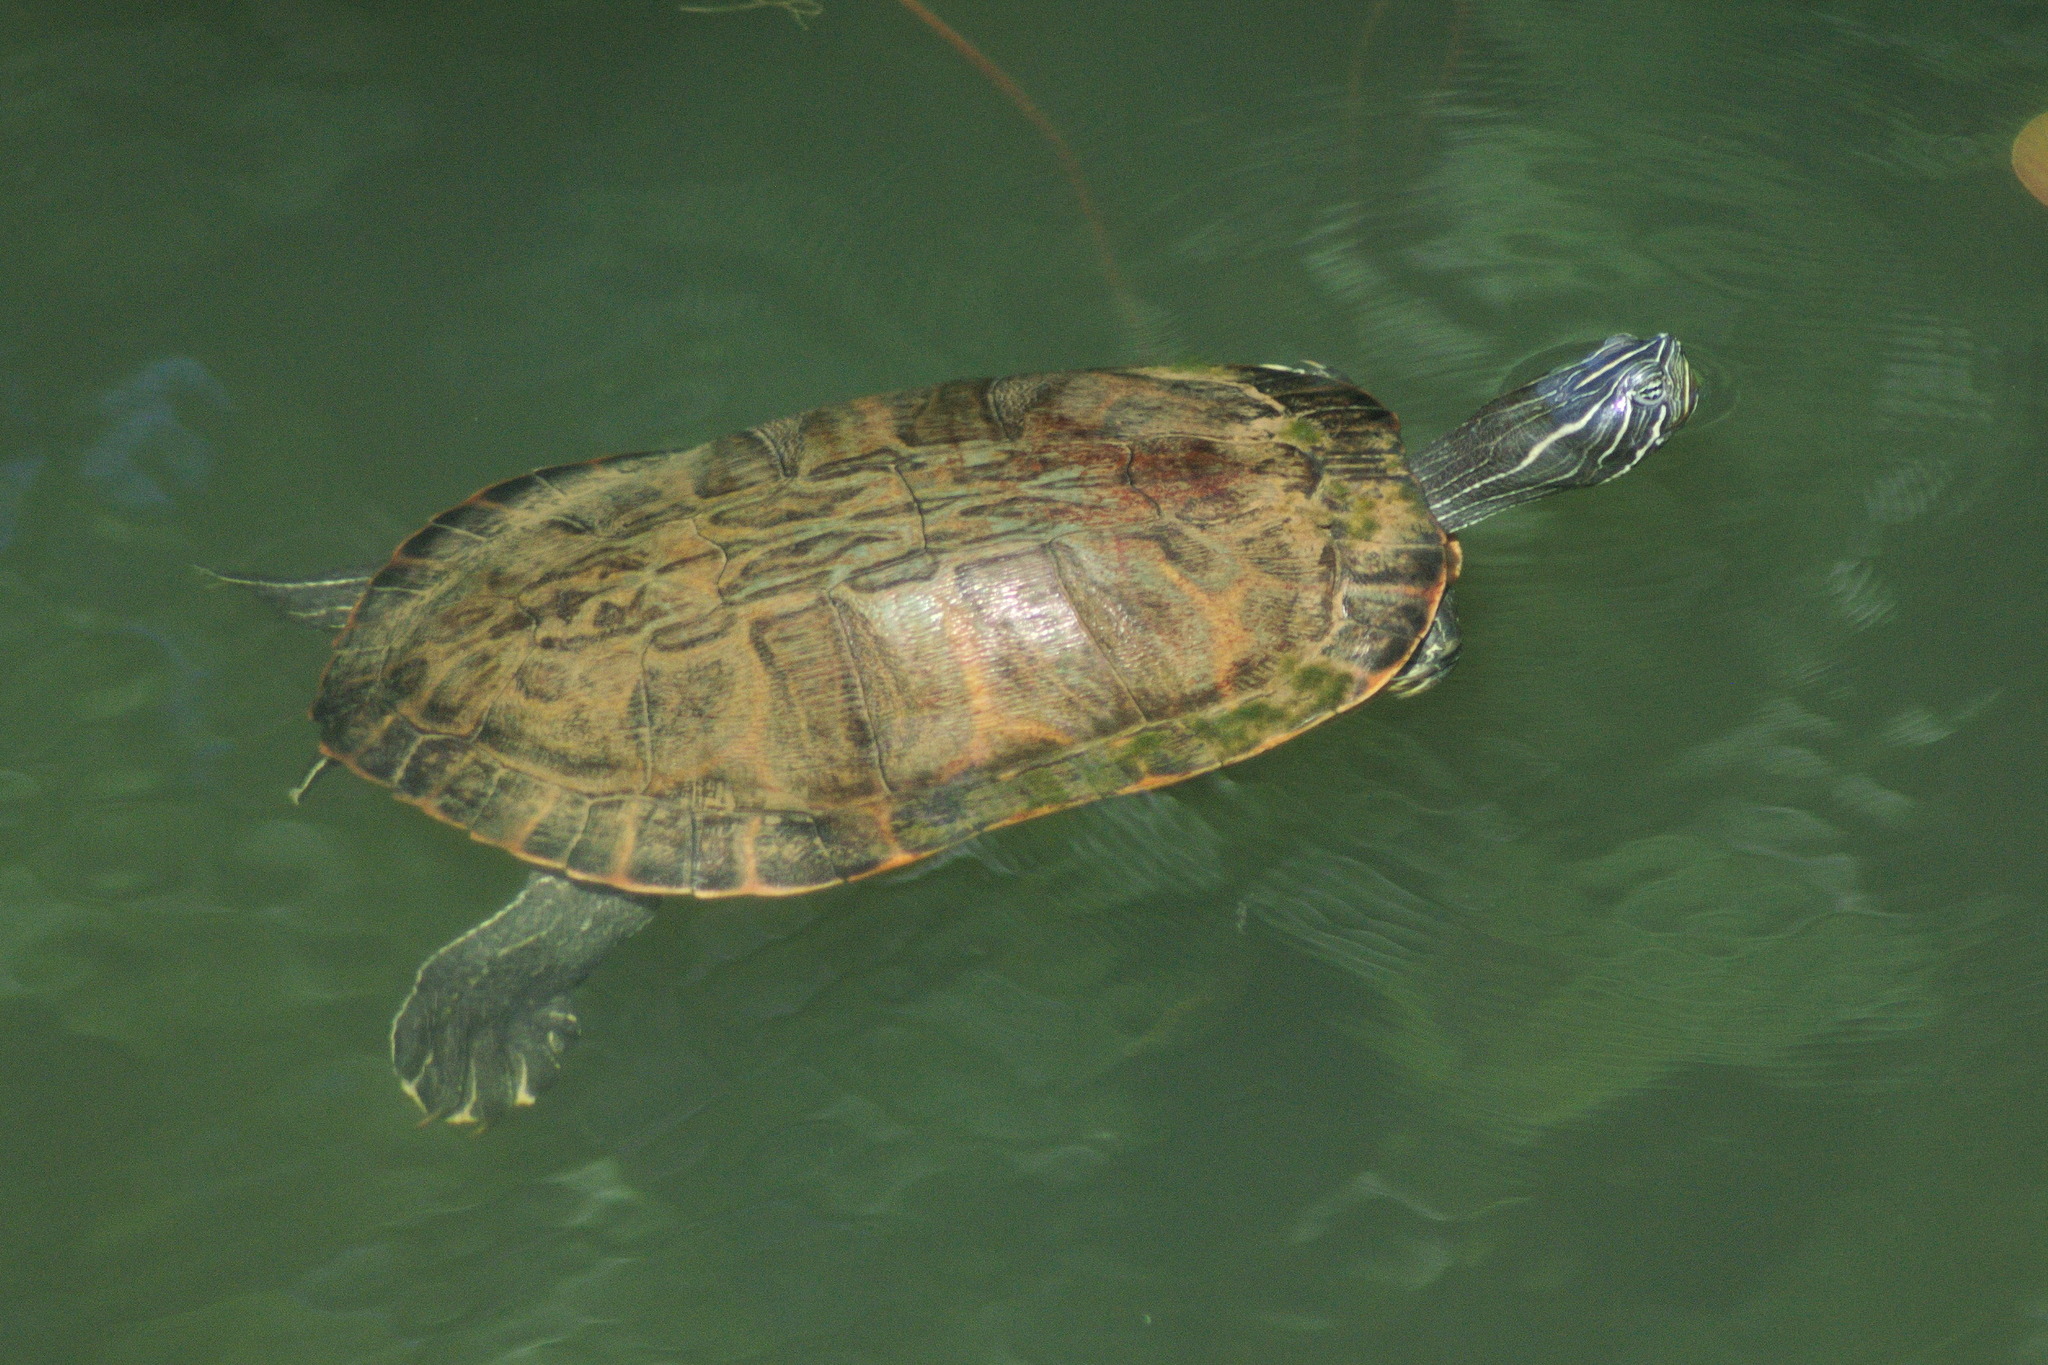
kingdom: Animalia
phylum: Chordata
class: Testudines
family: Emydidae
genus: Pseudemys
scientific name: Pseudemys rubriventris
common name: American red-bellied turtle
